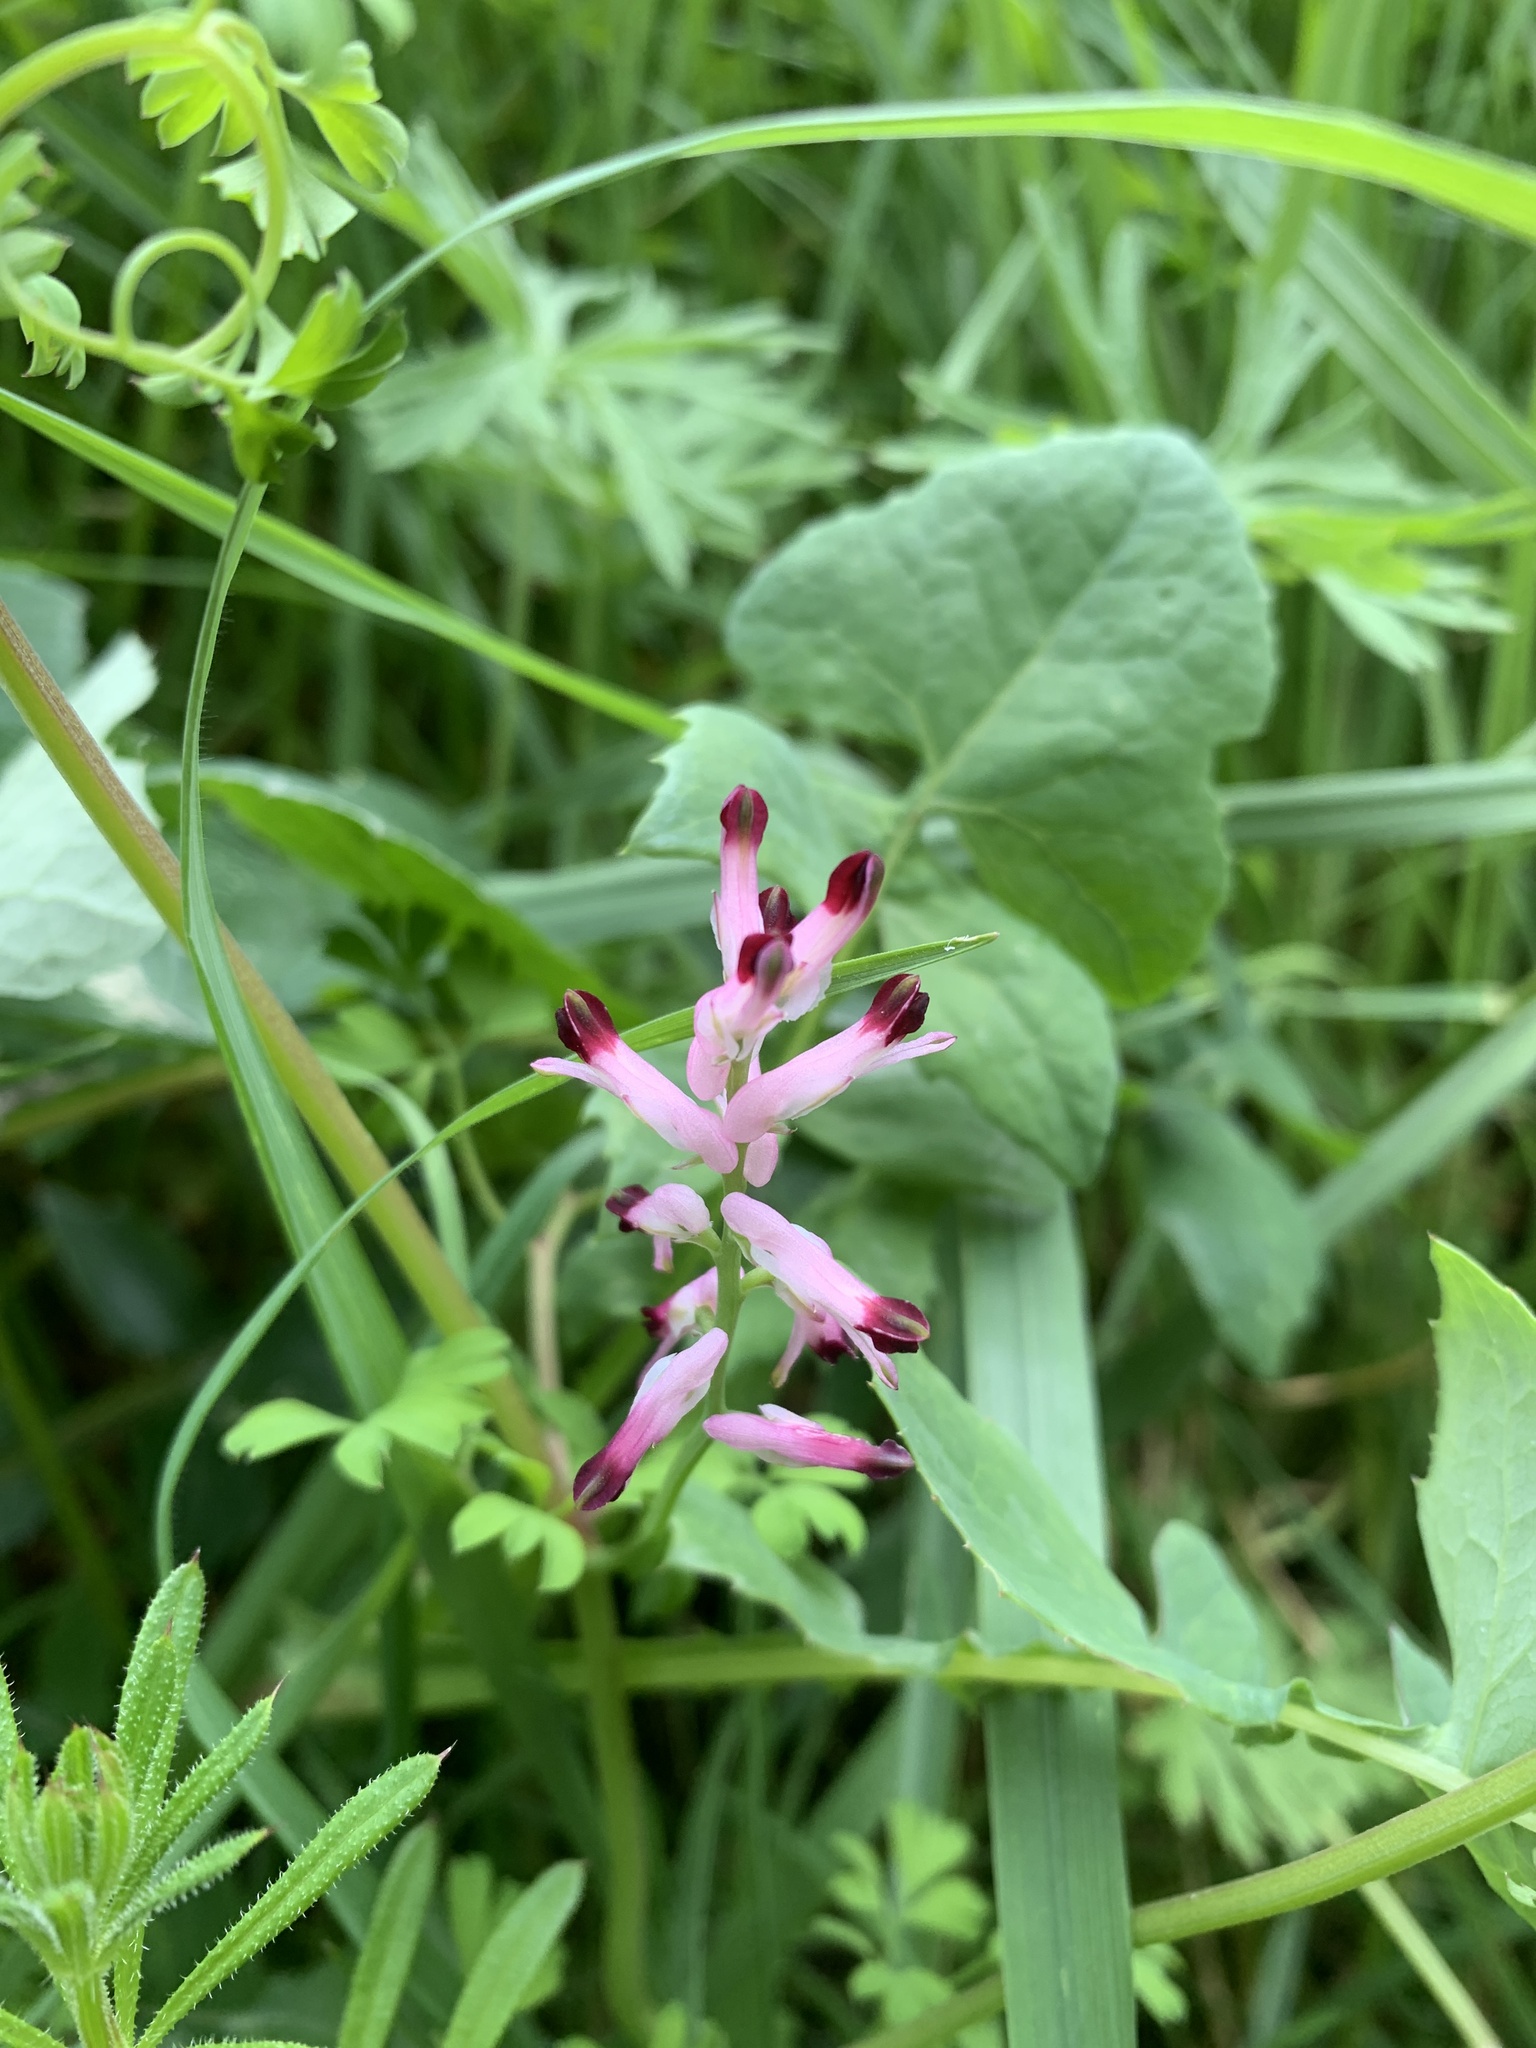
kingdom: Plantae
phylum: Tracheophyta
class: Magnoliopsida
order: Ranunculales
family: Papaveraceae
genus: Fumaria
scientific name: Fumaria muralis
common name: Common ramping-fumitory
